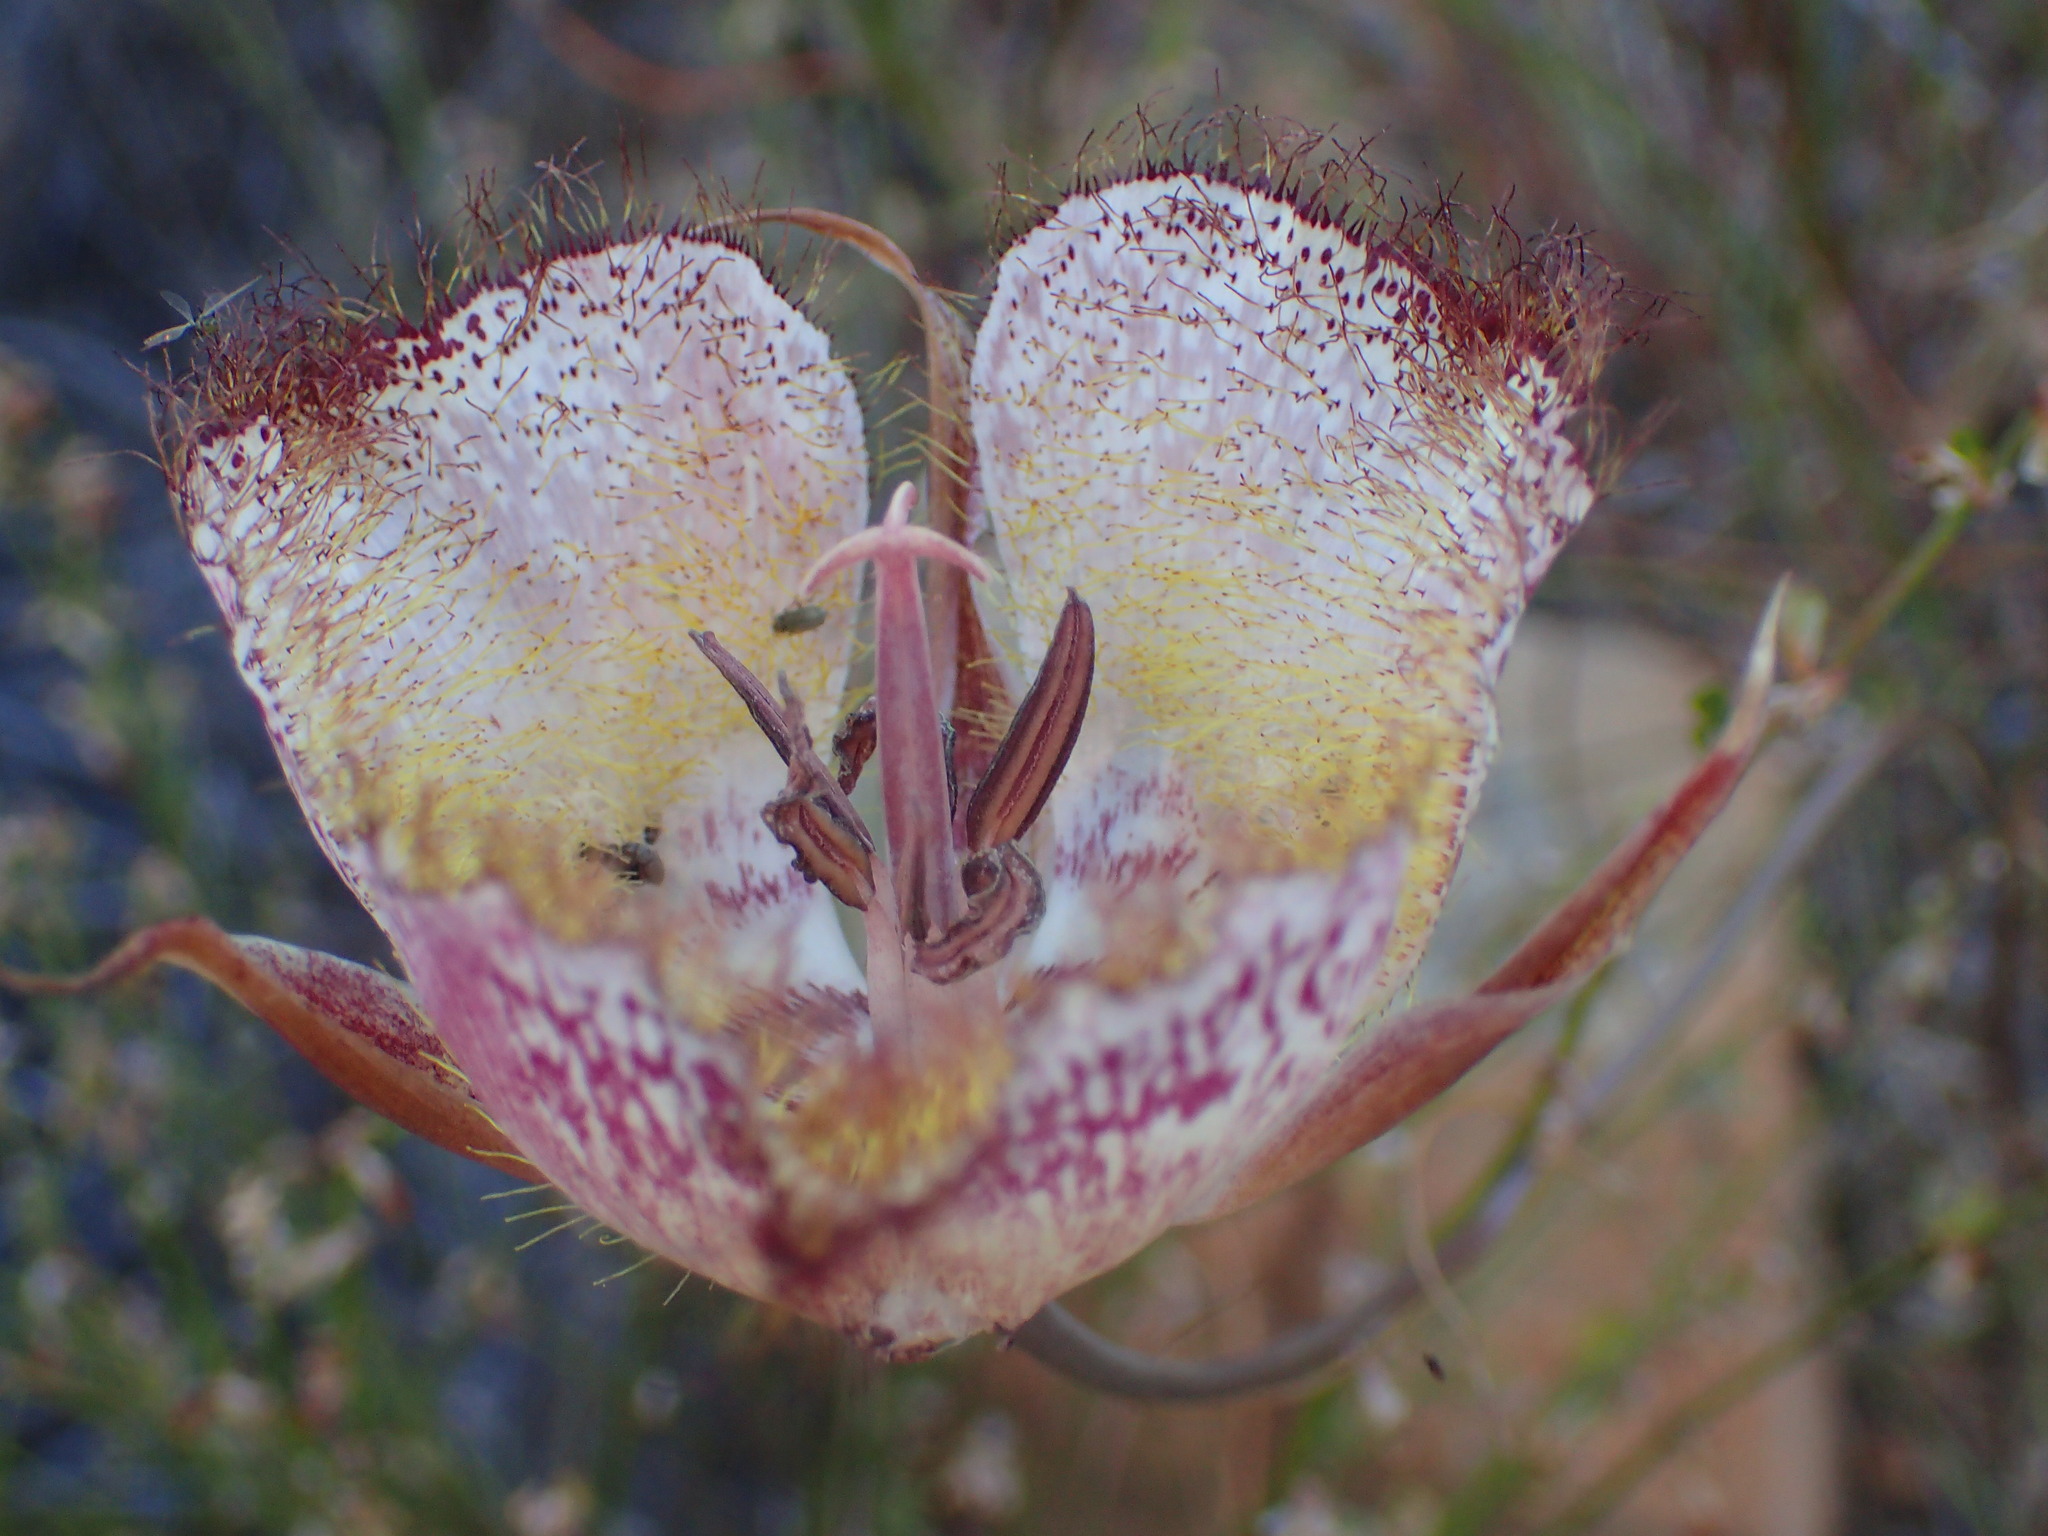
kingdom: Plantae
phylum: Tracheophyta
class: Liliopsida
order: Liliales
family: Liliaceae
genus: Calochortus
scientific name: Calochortus fimbriatus
